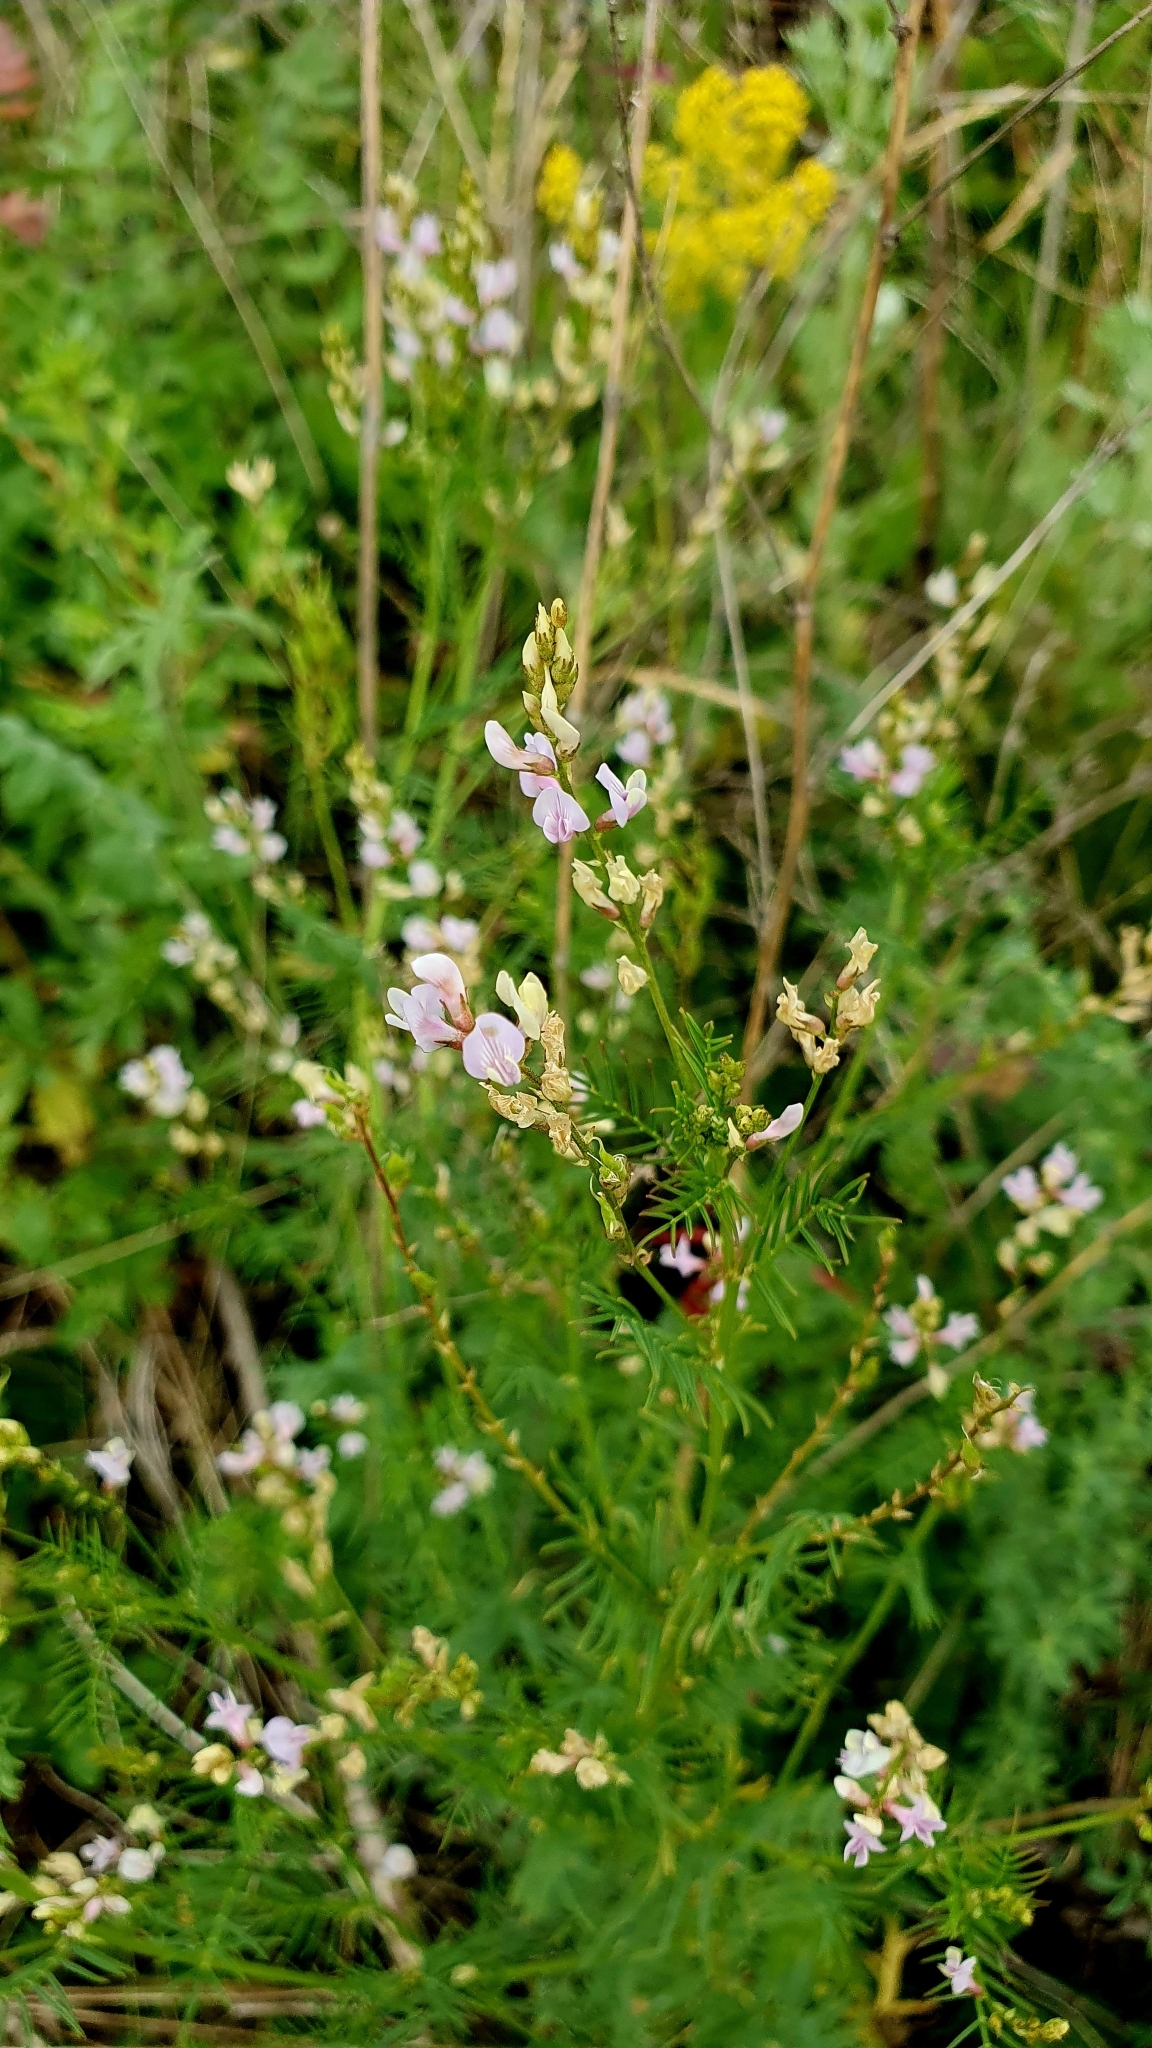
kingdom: Plantae
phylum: Tracheophyta
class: Magnoliopsida
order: Fabales
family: Fabaceae
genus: Astragalus
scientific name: Astragalus sulcatus
